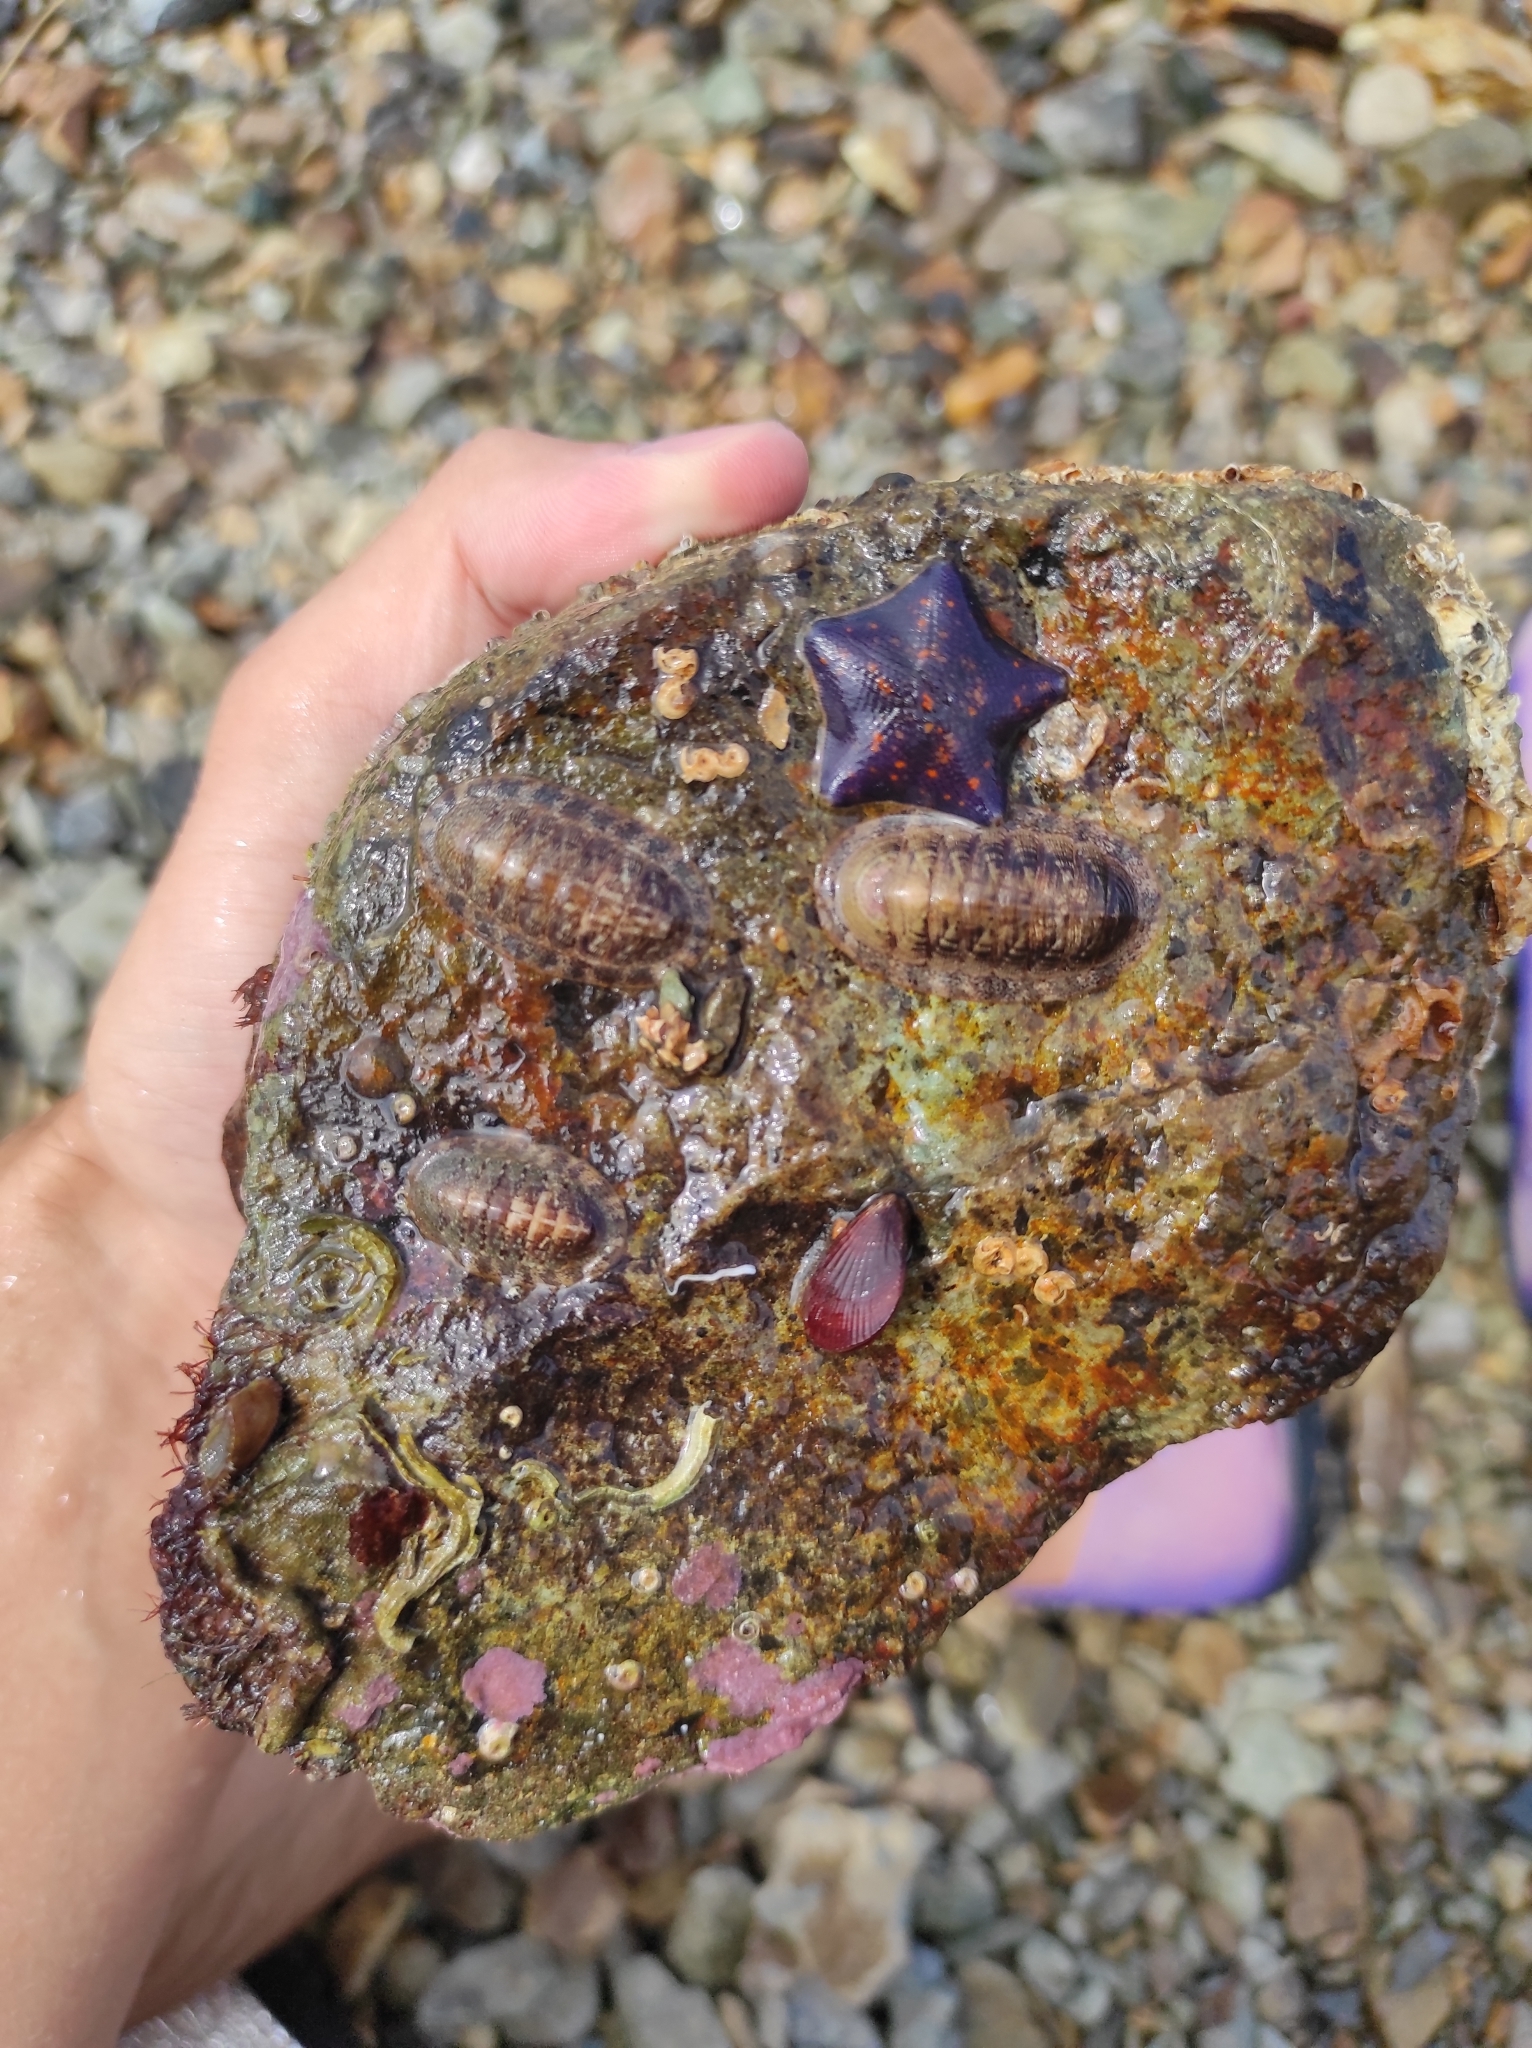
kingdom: Animalia
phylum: Mollusca
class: Bivalvia
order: Mytilida
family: Mytilidae
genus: Mytilisepta
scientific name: Mytilisepta keenae
